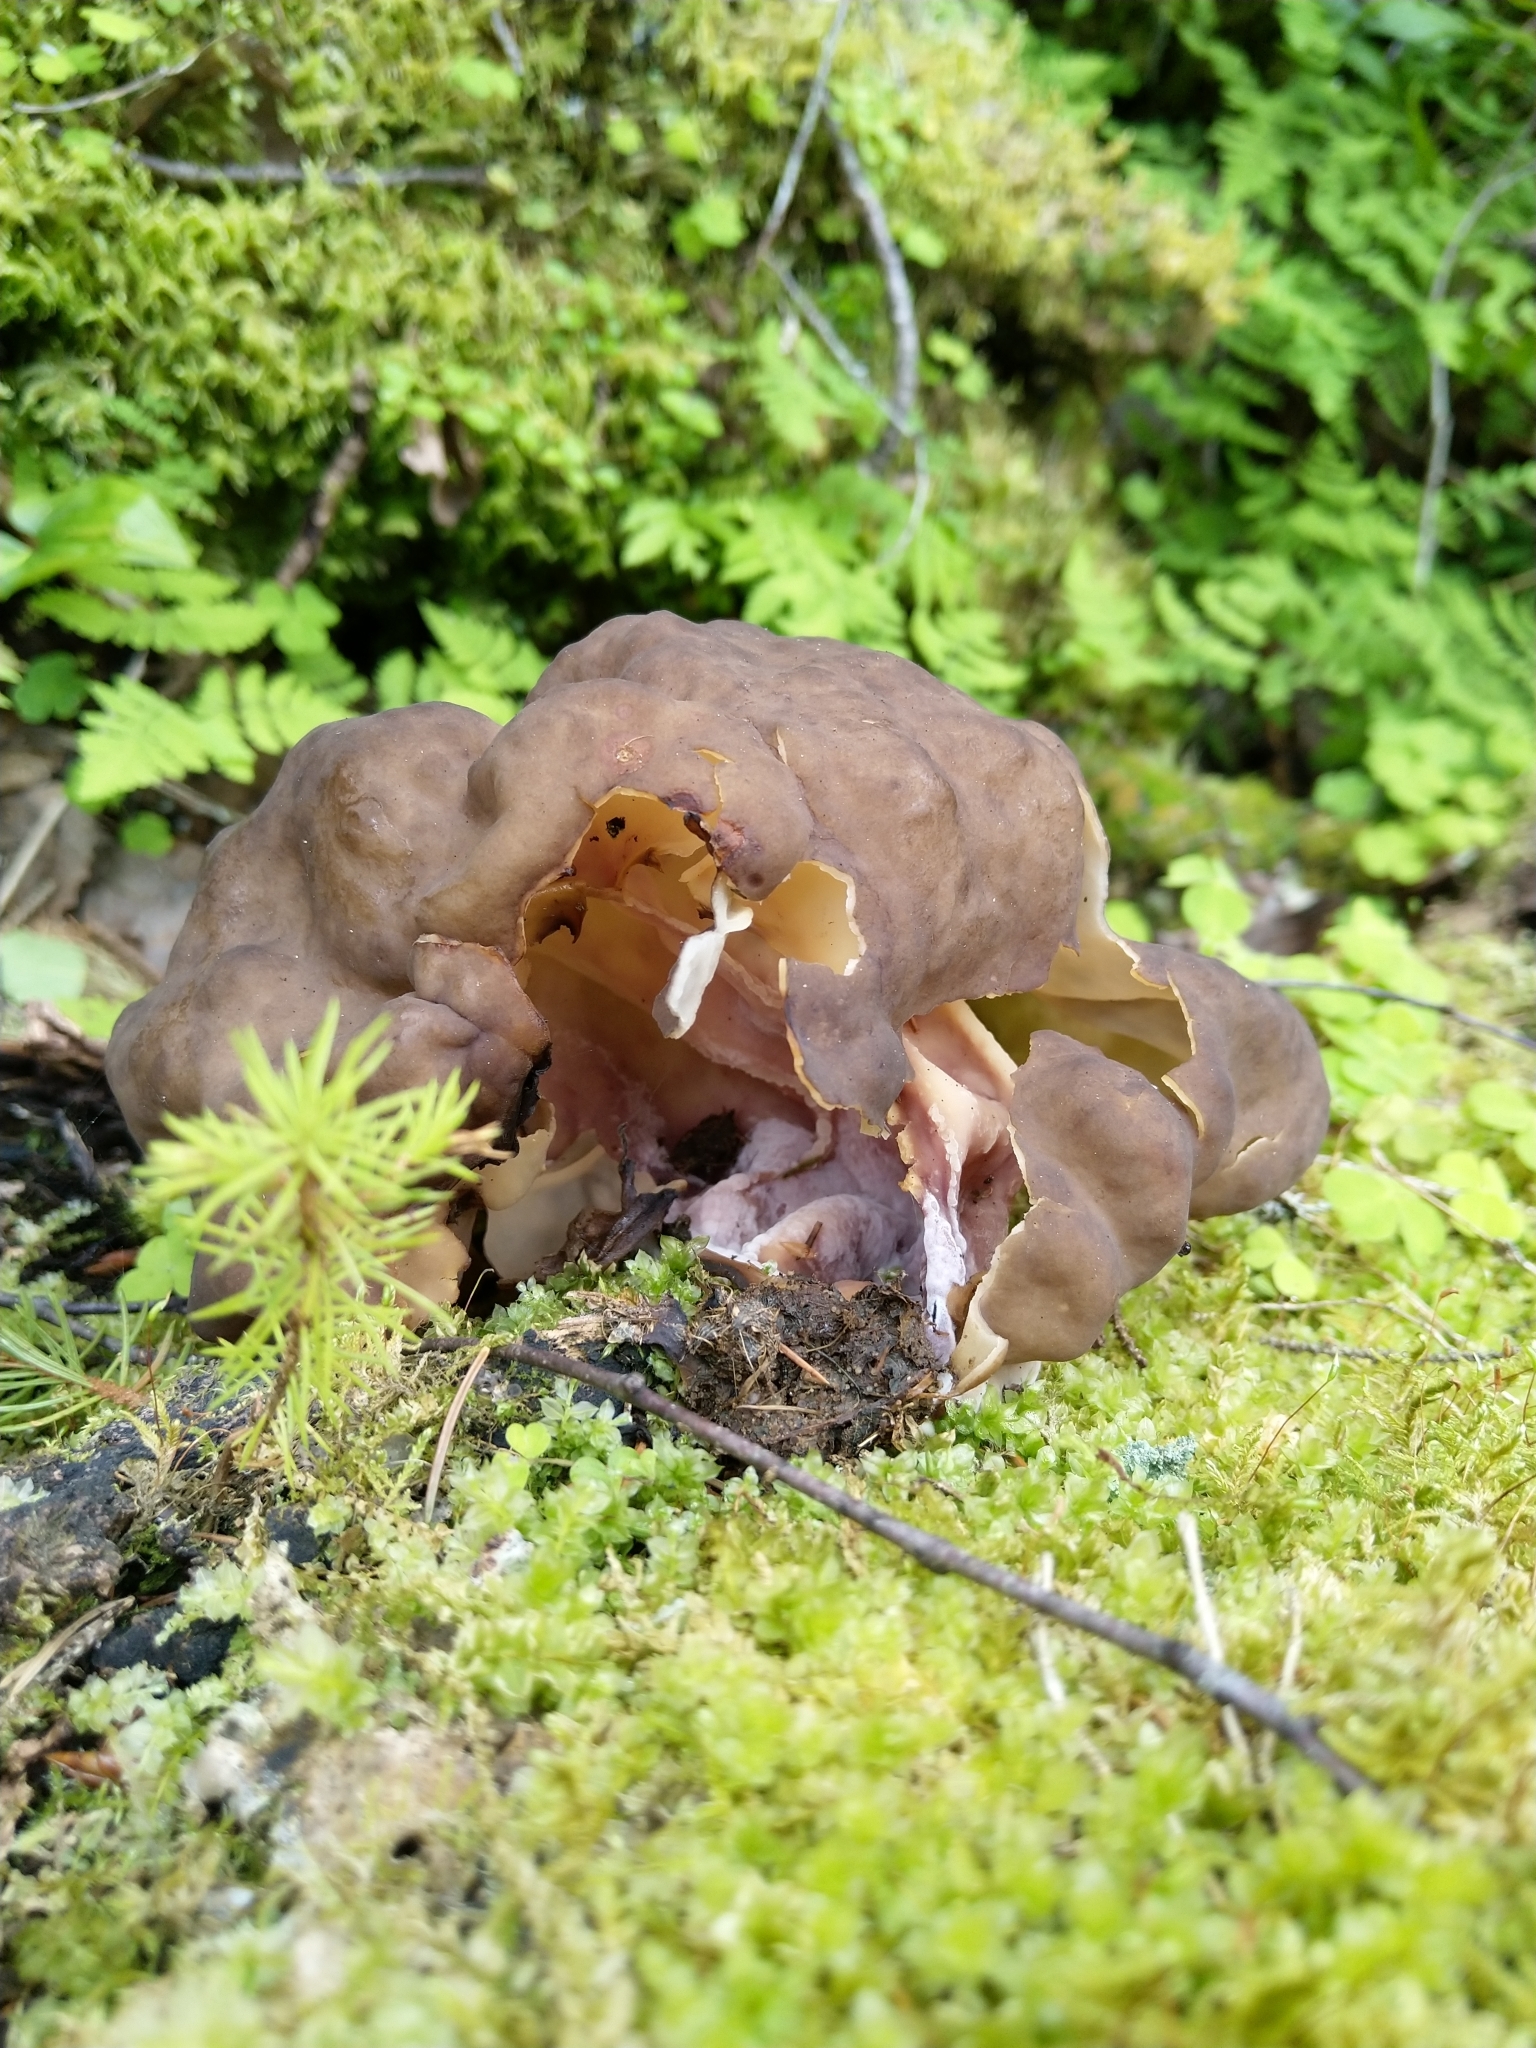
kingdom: Fungi
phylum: Ascomycota
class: Pezizomycetes
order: Pezizales
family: Discinaceae
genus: Gyromitra
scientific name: Gyromitra sphaerospora
